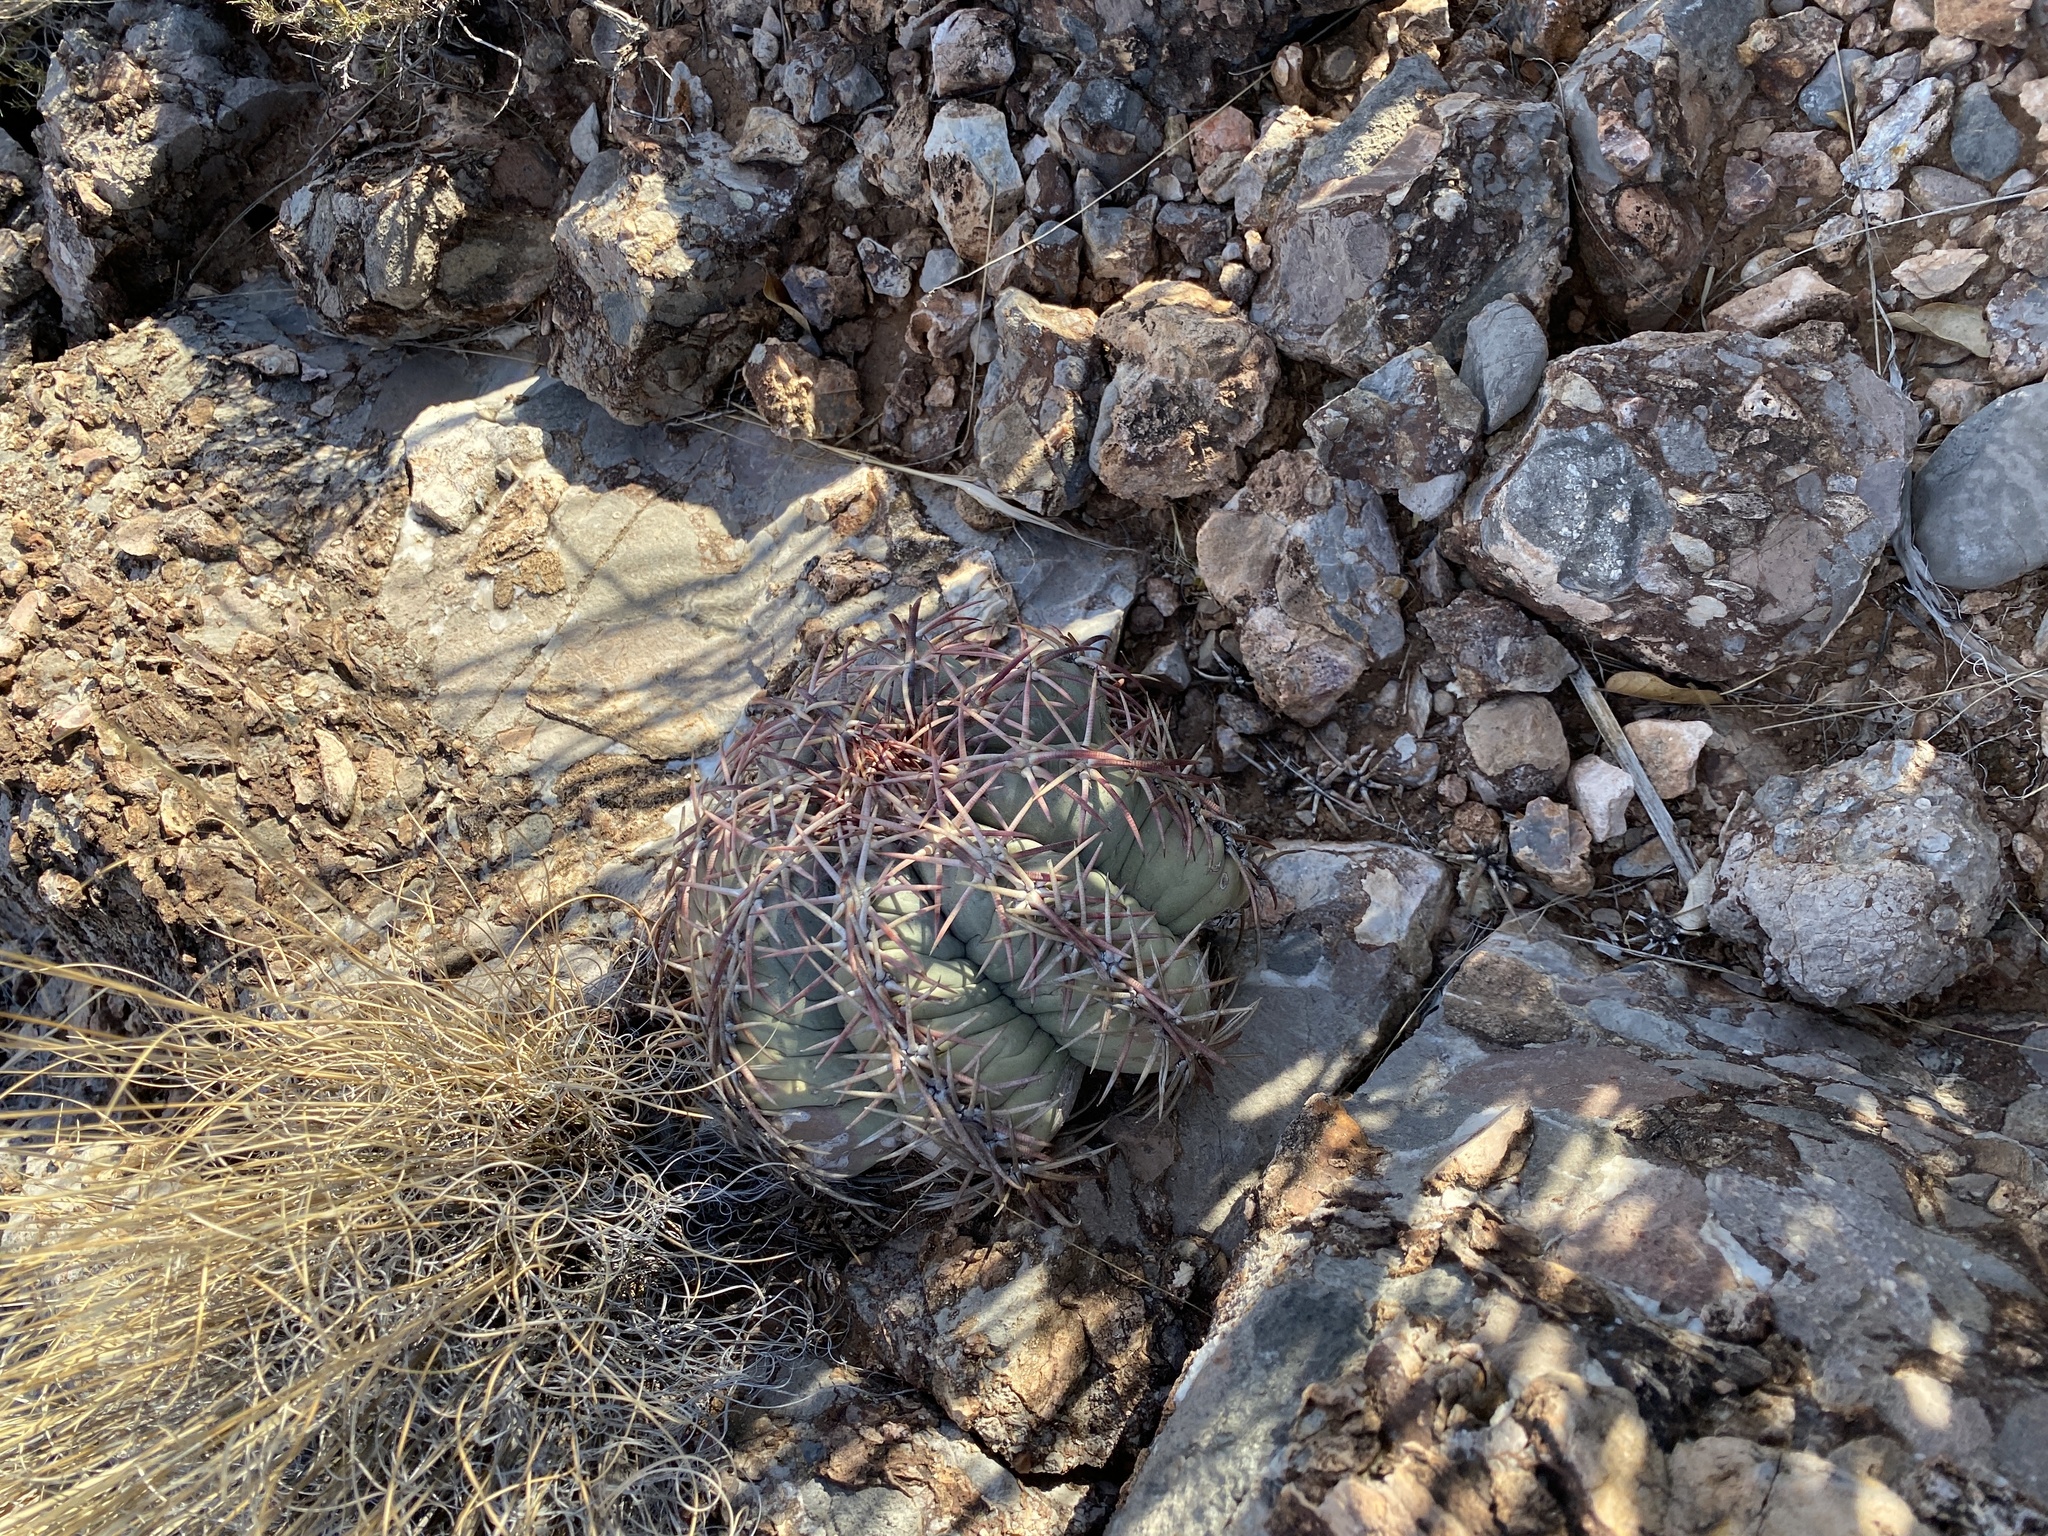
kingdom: Plantae
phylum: Tracheophyta
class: Magnoliopsida
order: Caryophyllales
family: Cactaceae
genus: Echinocactus
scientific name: Echinocactus horizonthalonius
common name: Devilshead
